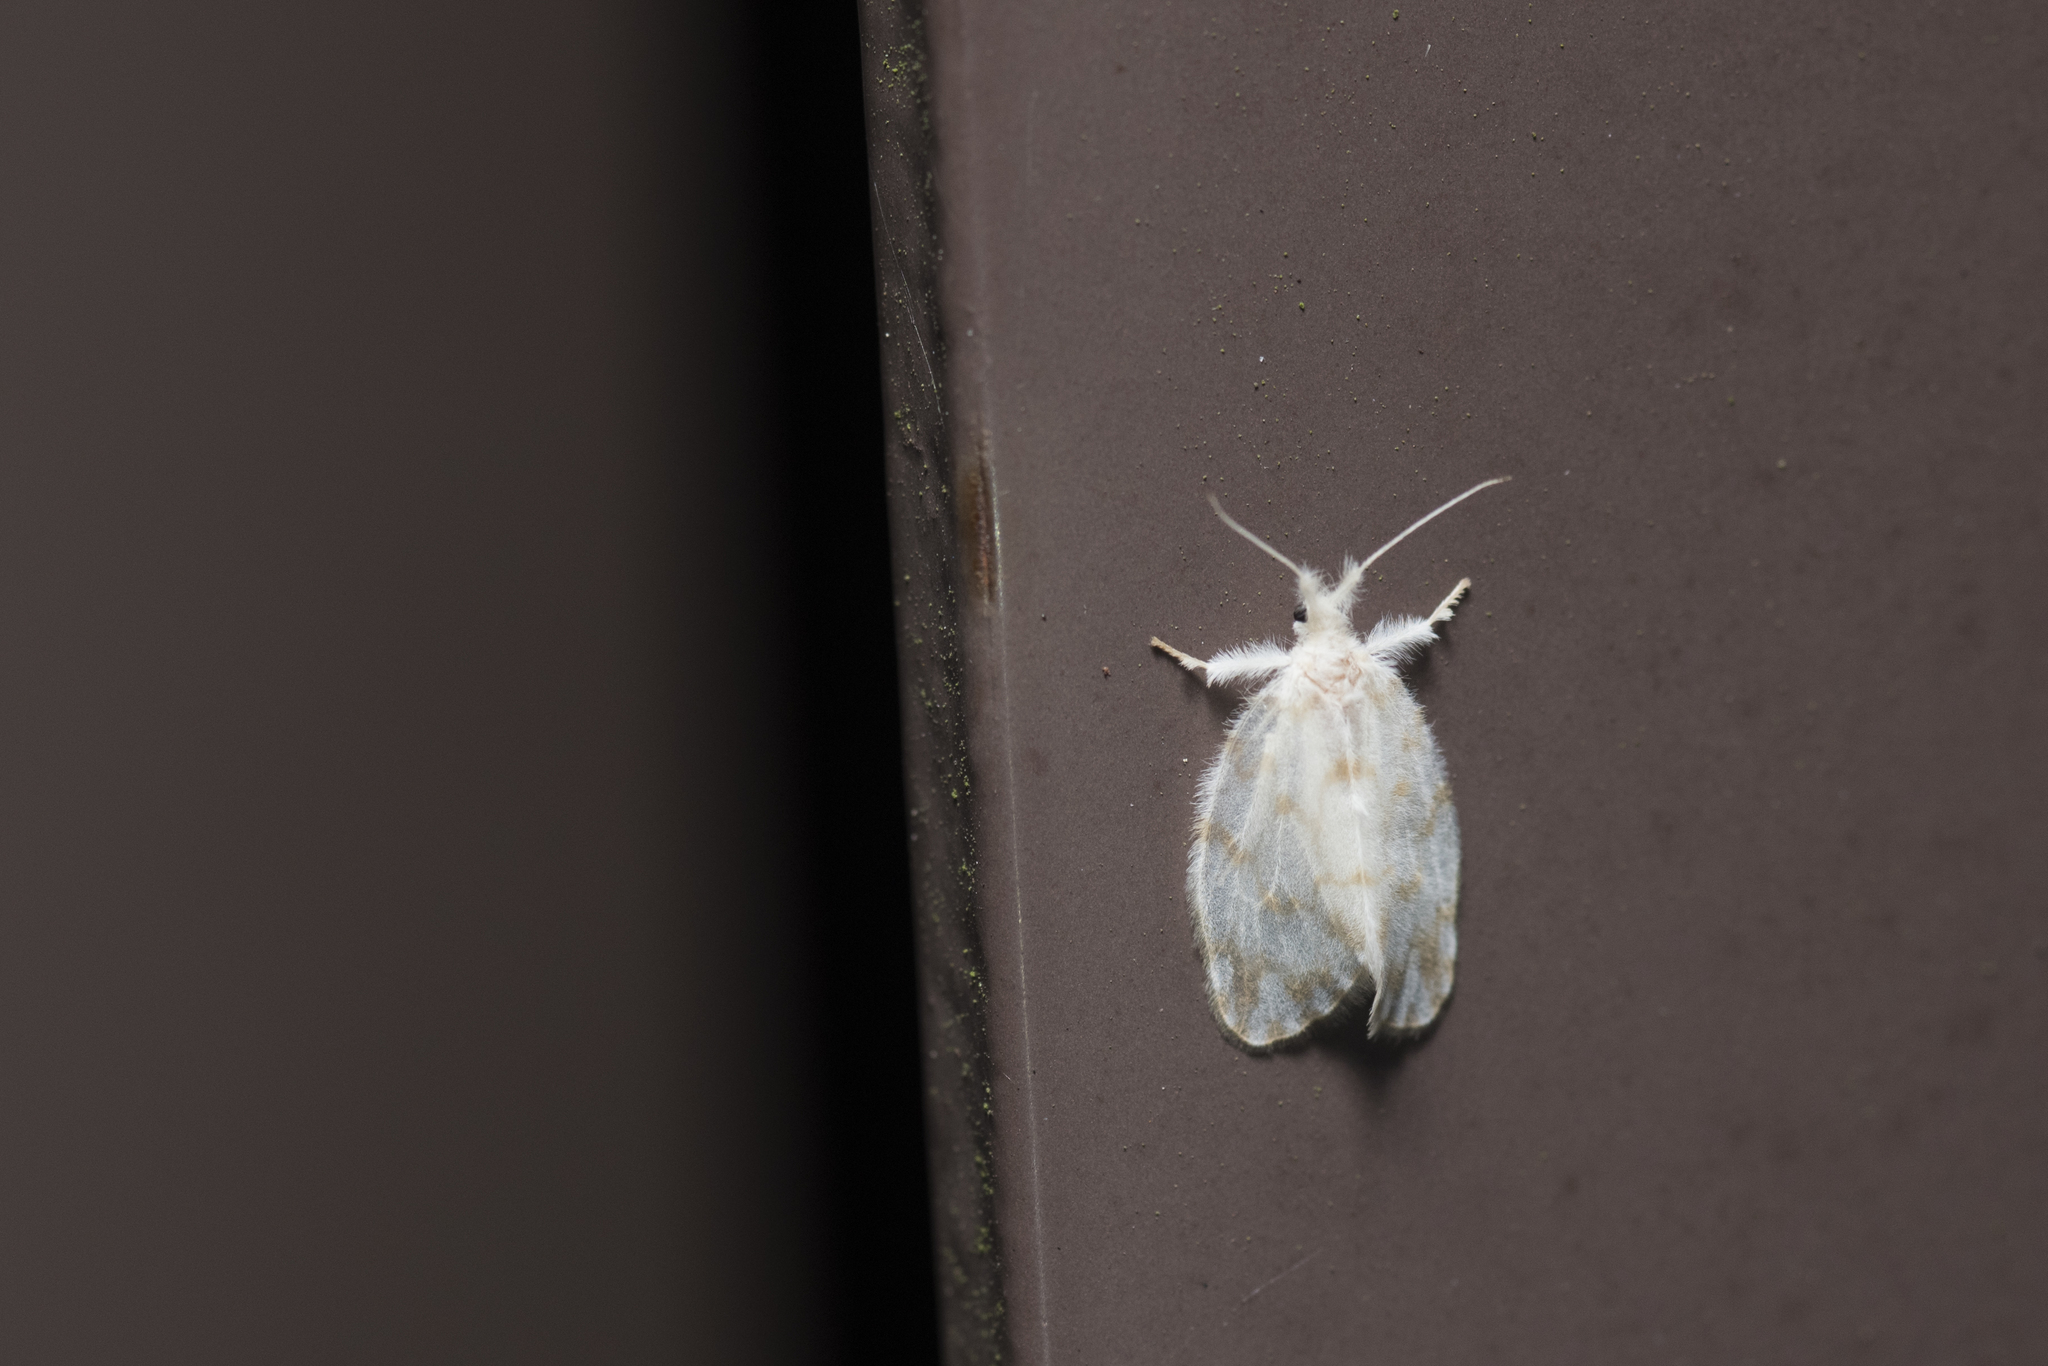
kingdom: Animalia
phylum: Arthropoda
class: Insecta
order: Lepidoptera
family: Erebidae
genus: Chamaita
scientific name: Chamaita hirta
